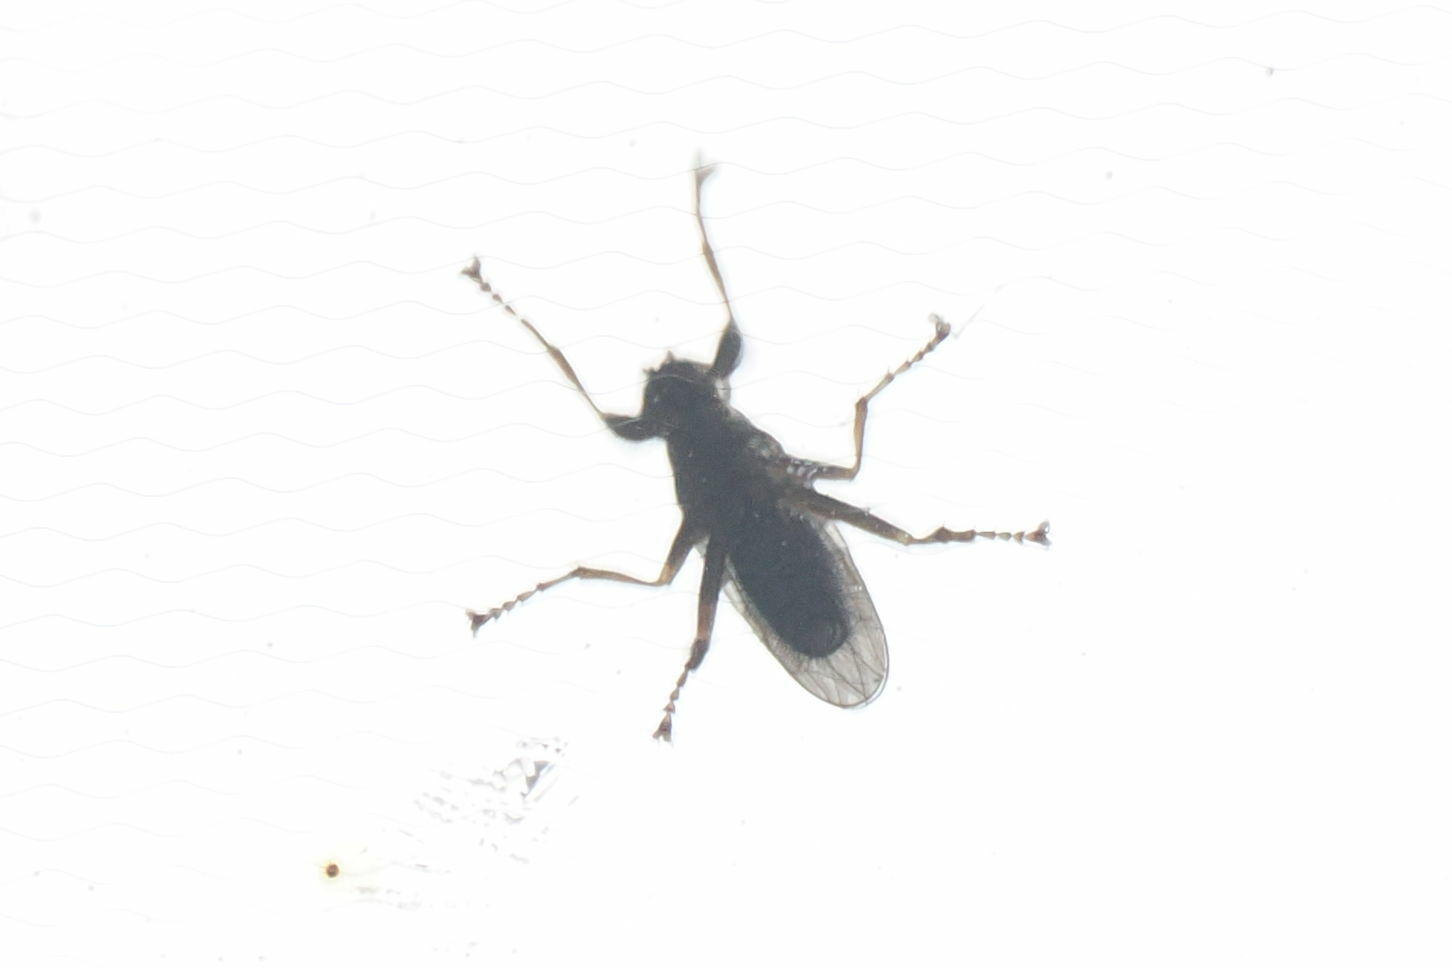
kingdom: Animalia
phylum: Arthropoda
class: Insecta
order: Diptera
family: Coelopidae
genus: Coelopa
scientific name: Coelopa frigida
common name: Kelp fly
